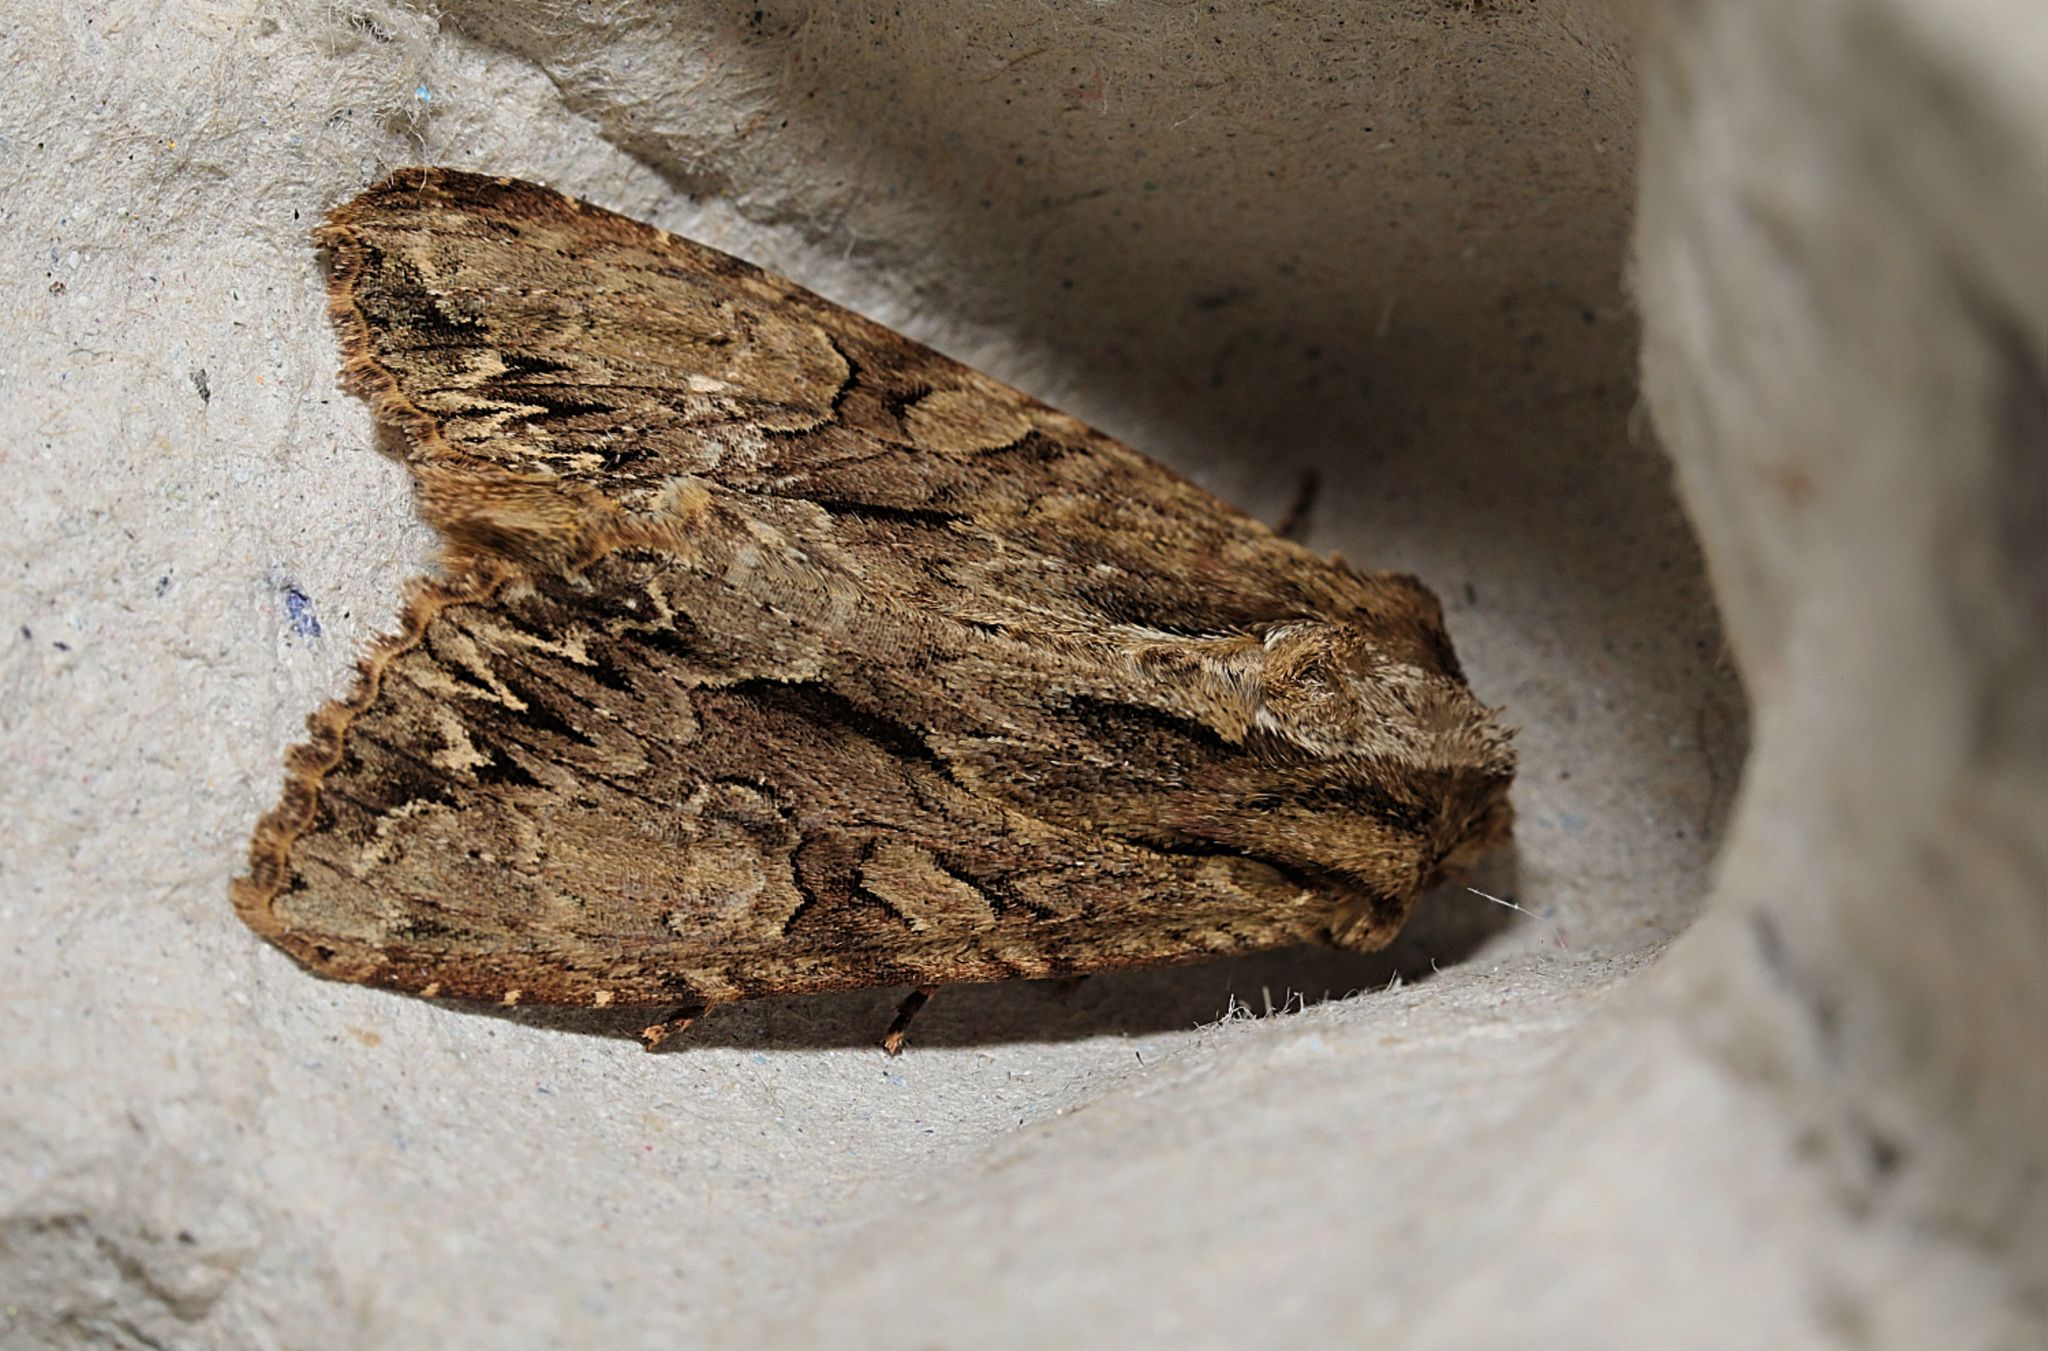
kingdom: Animalia
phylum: Arthropoda
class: Insecta
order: Lepidoptera
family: Noctuidae
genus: Apamea
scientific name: Apamea monoglypha
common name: Dark arches
